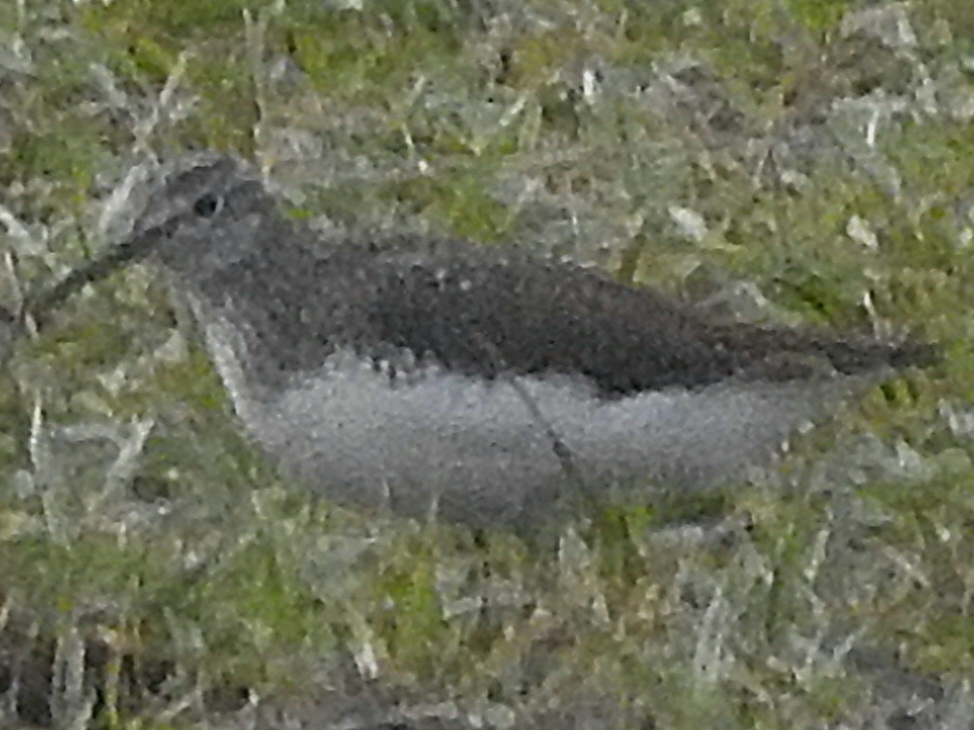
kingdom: Animalia
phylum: Chordata
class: Aves
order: Charadriiformes
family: Scolopacidae
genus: Tringa
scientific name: Tringa ochropus
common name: Green sandpiper
